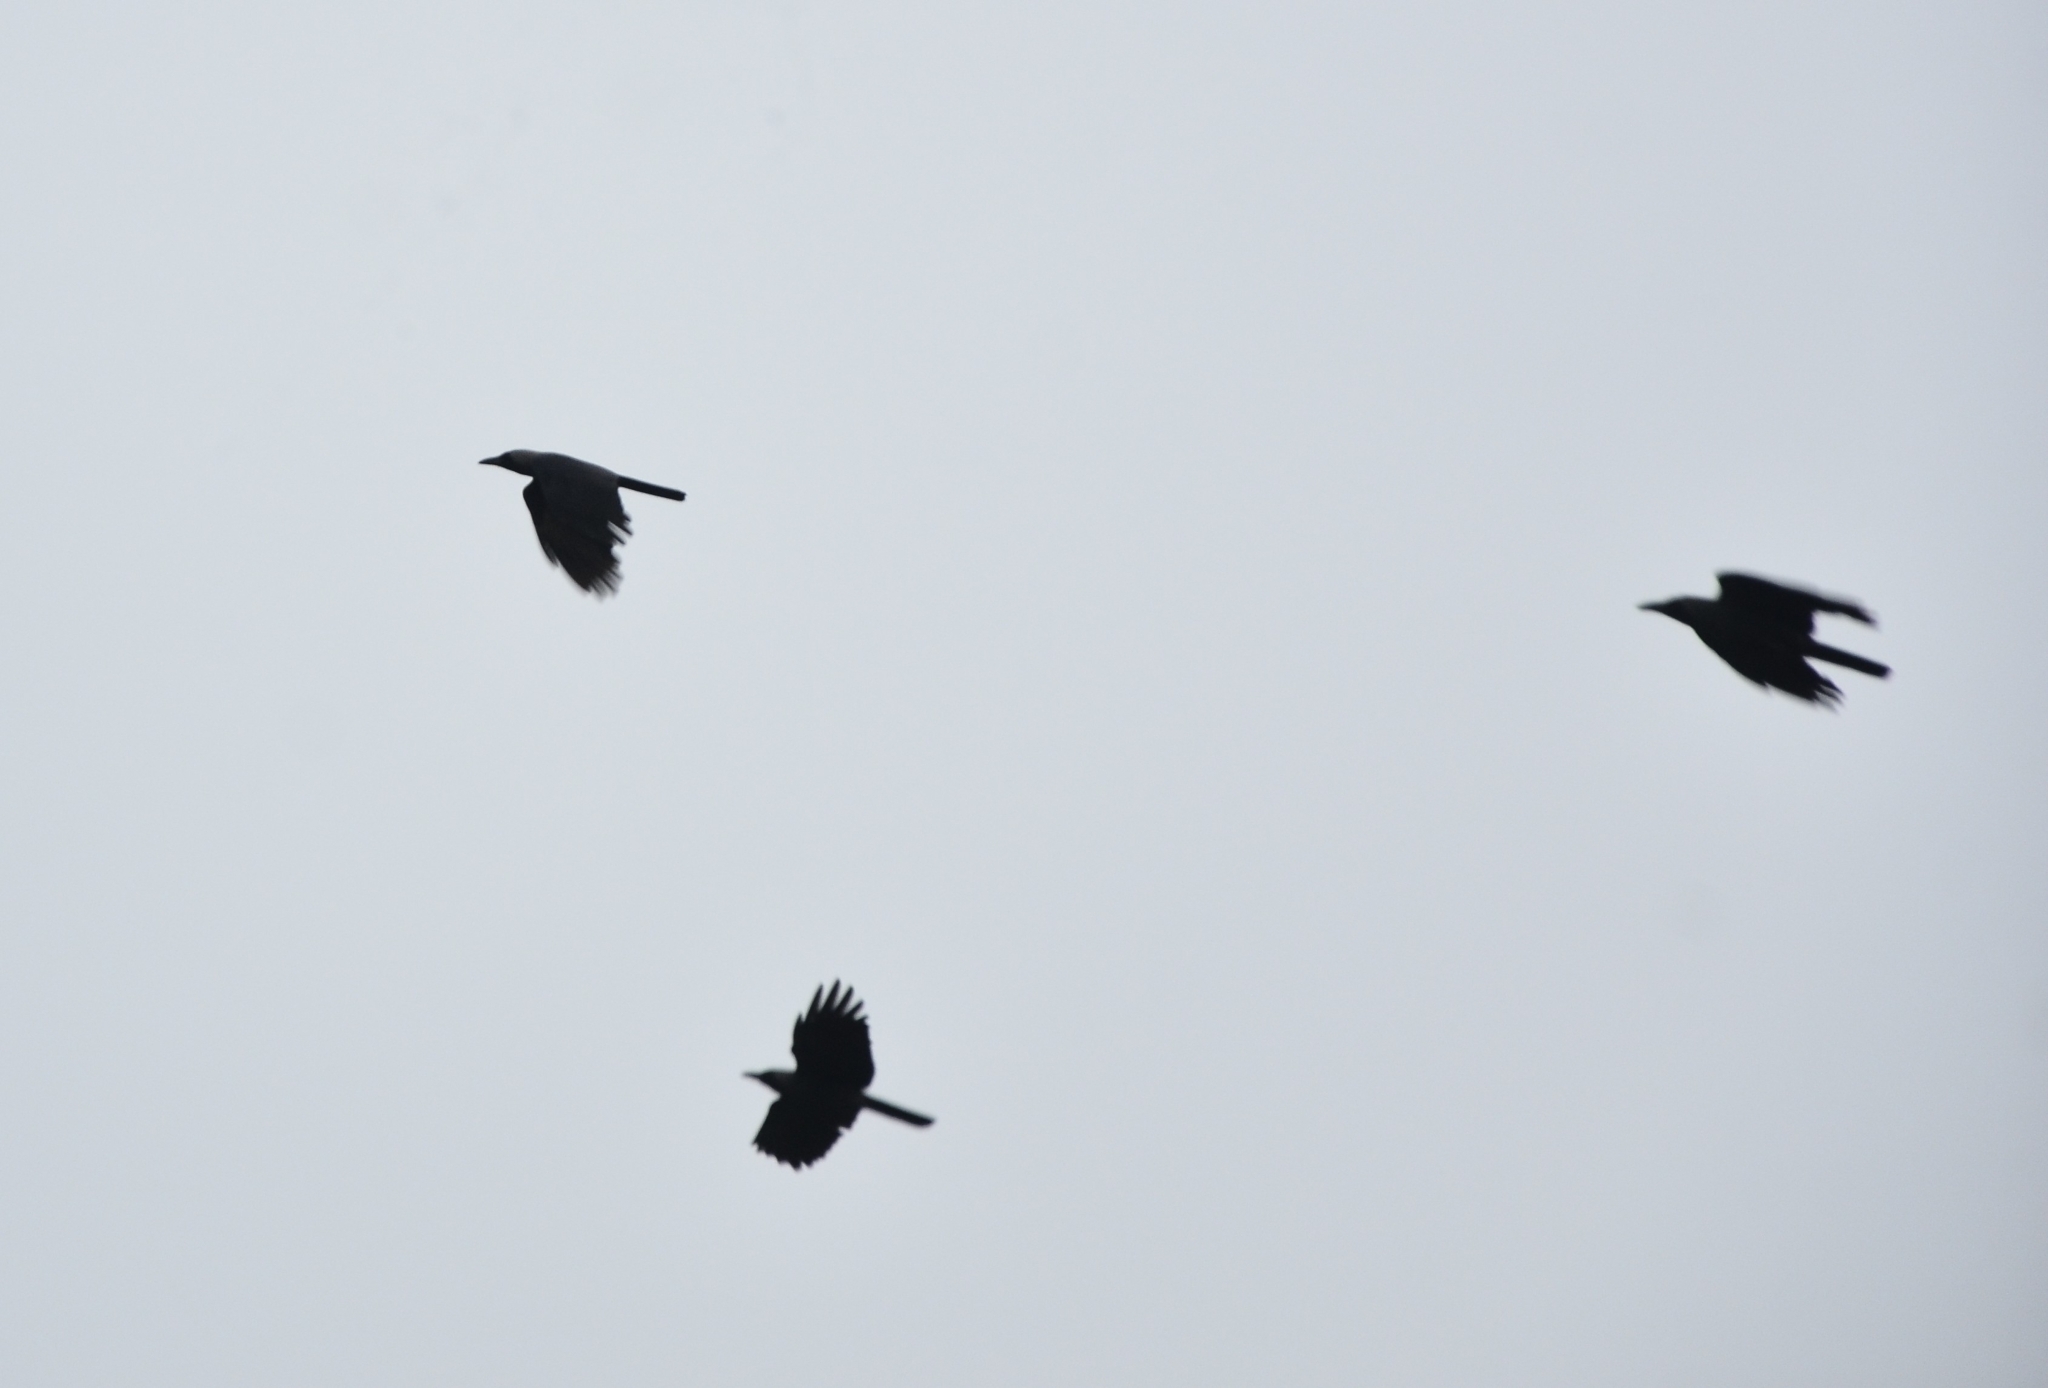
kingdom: Animalia
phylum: Chordata
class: Aves
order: Passeriformes
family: Corvidae
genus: Corvus
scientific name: Corvus splendens
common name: House crow
